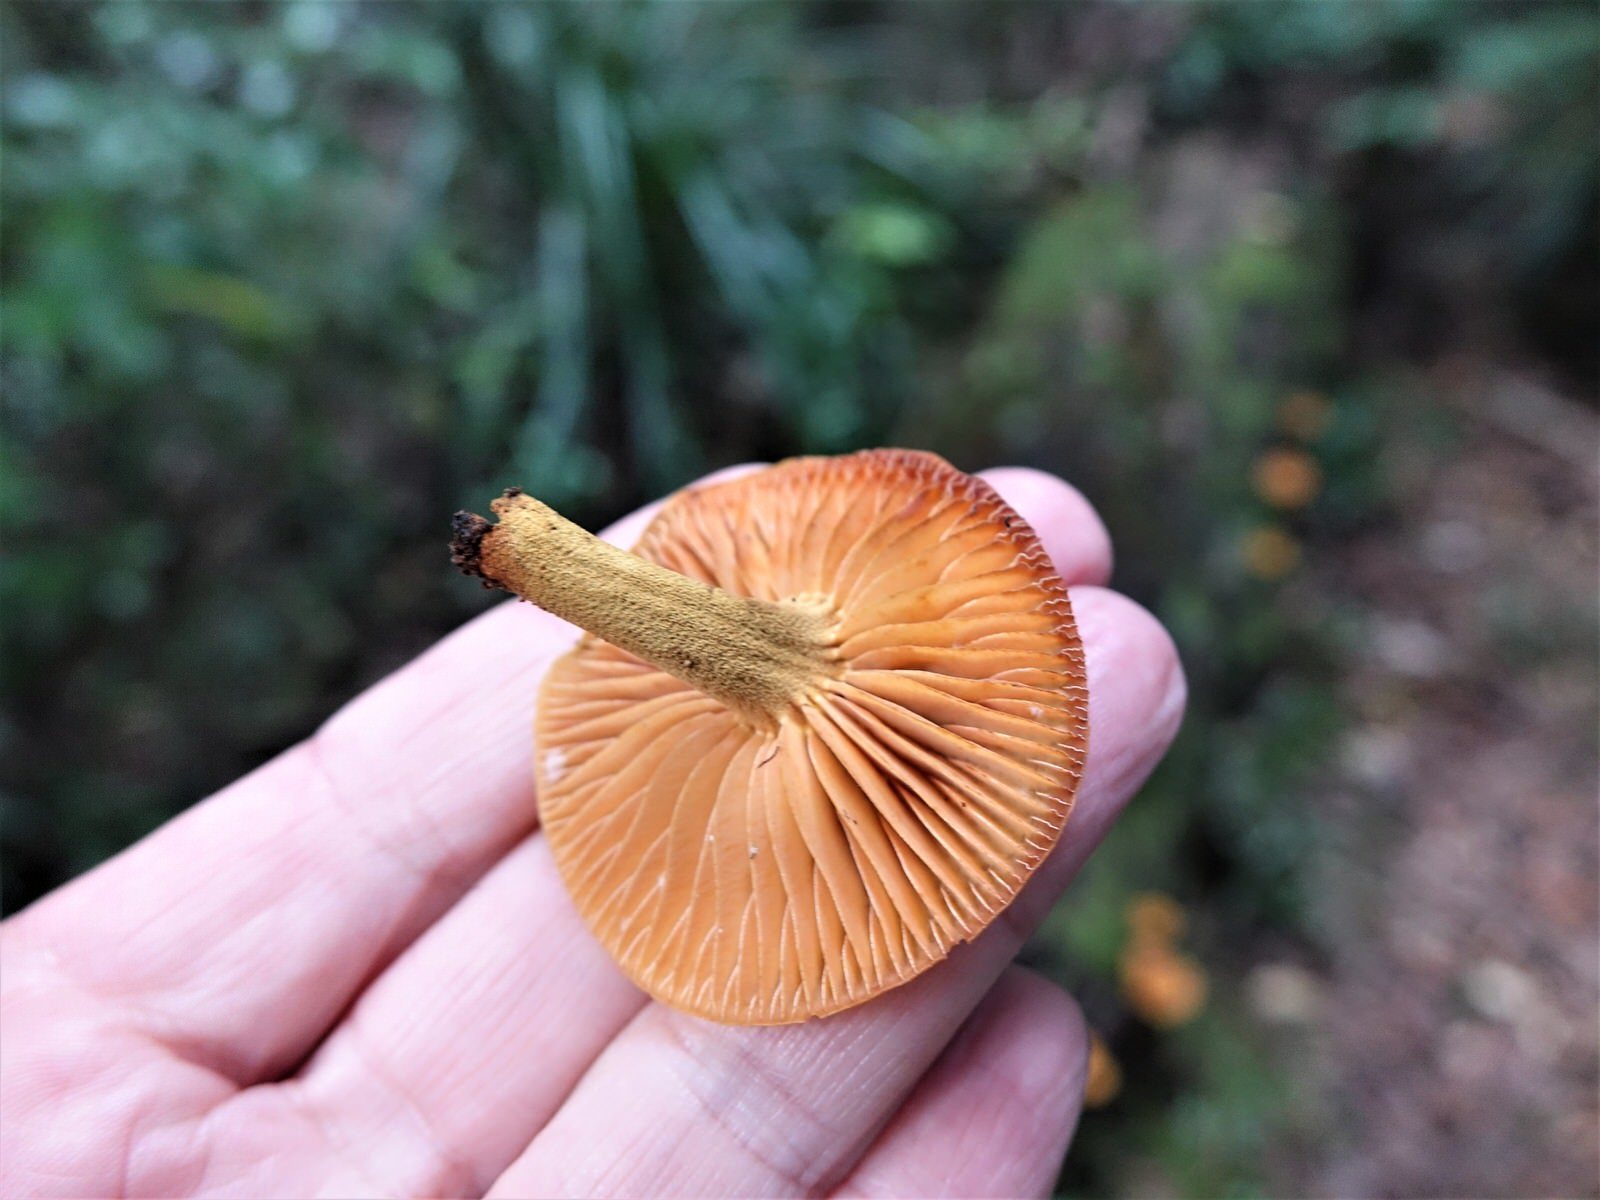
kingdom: Fungi
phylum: Basidiomycota
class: Agaricomycetes
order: Agaricales
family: Mycenaceae
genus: Heimiomyces
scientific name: Heimiomyces velutipes
